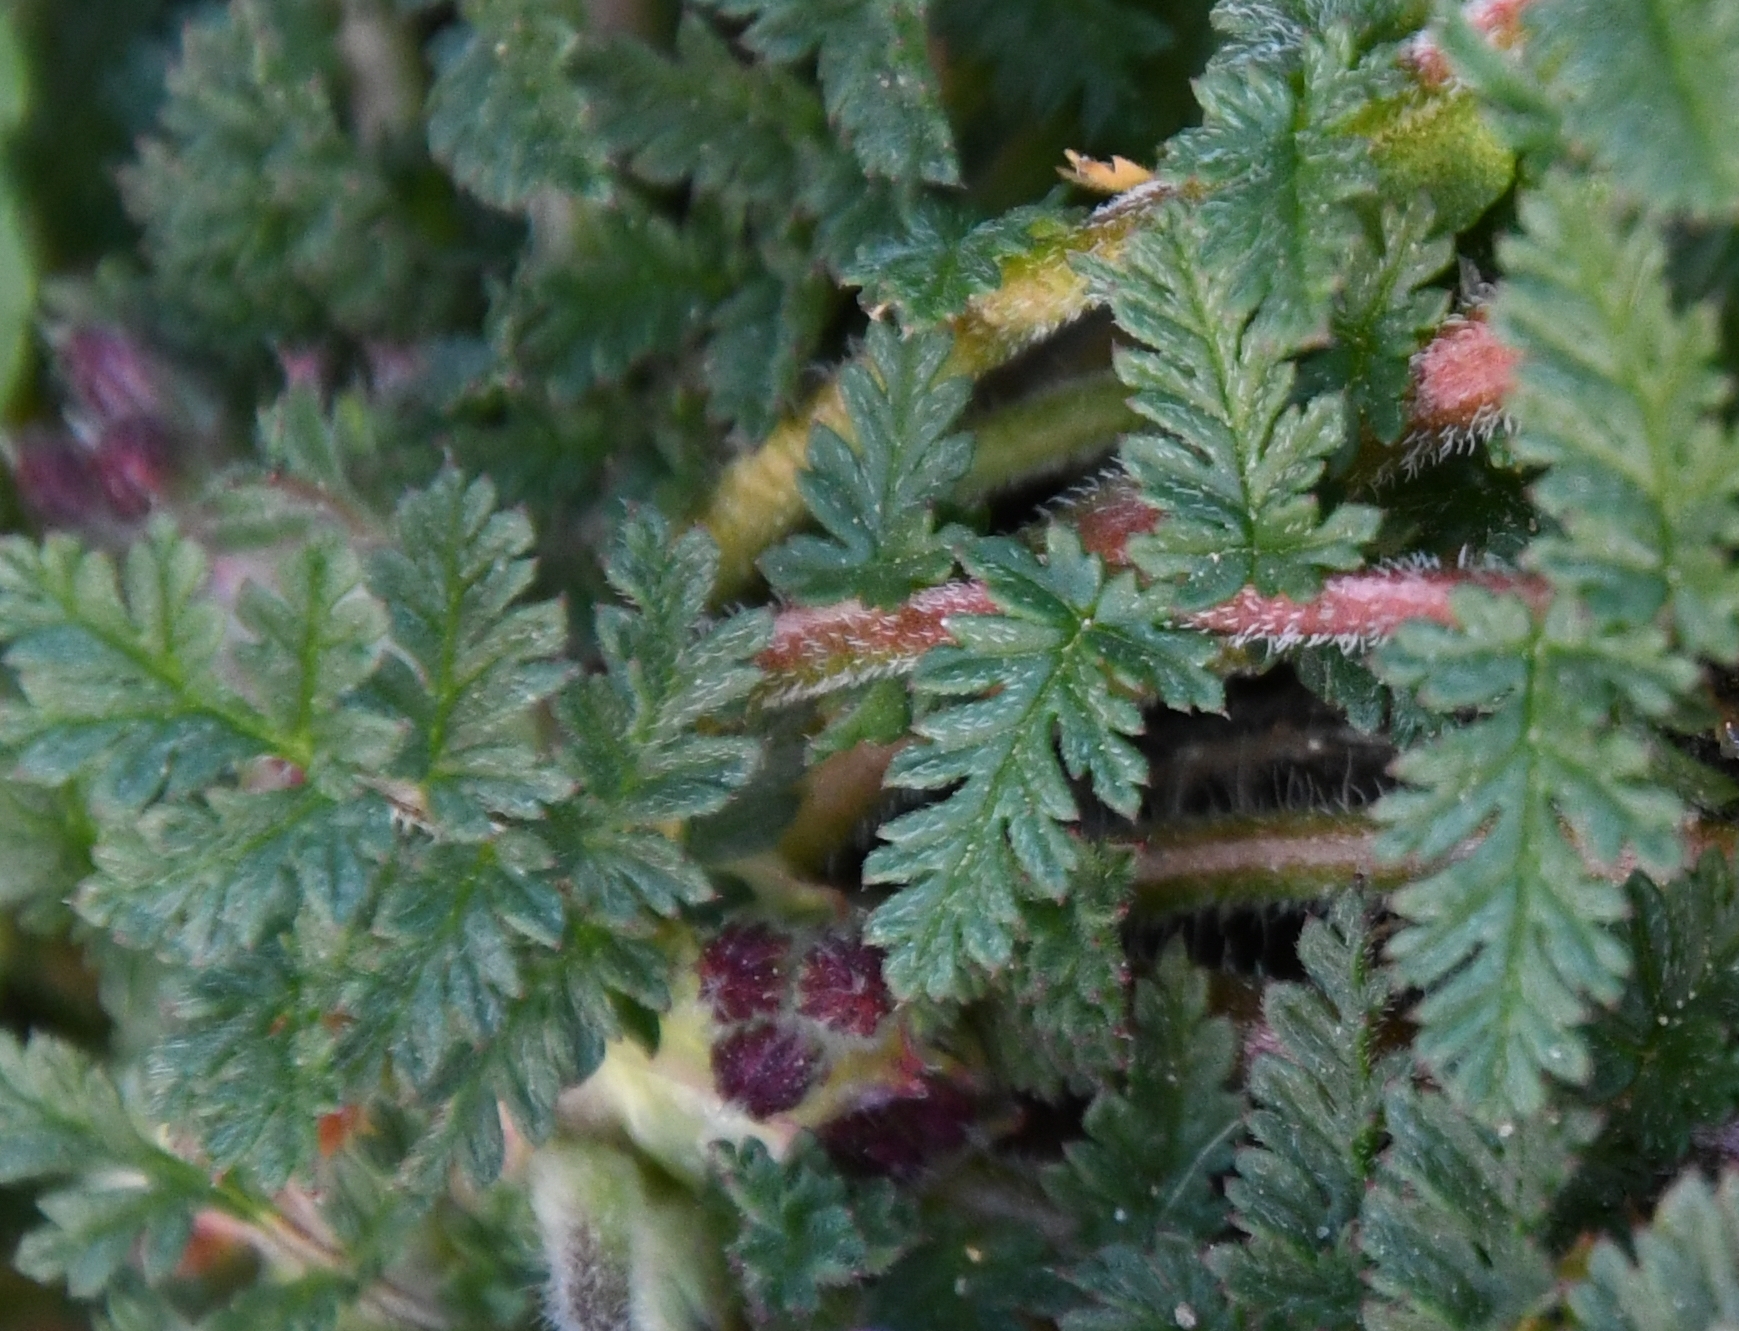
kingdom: Plantae
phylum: Tracheophyta
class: Magnoliopsida
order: Geraniales
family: Geraniaceae
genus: Erodium
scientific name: Erodium cicutarium
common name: Common stork's-bill
